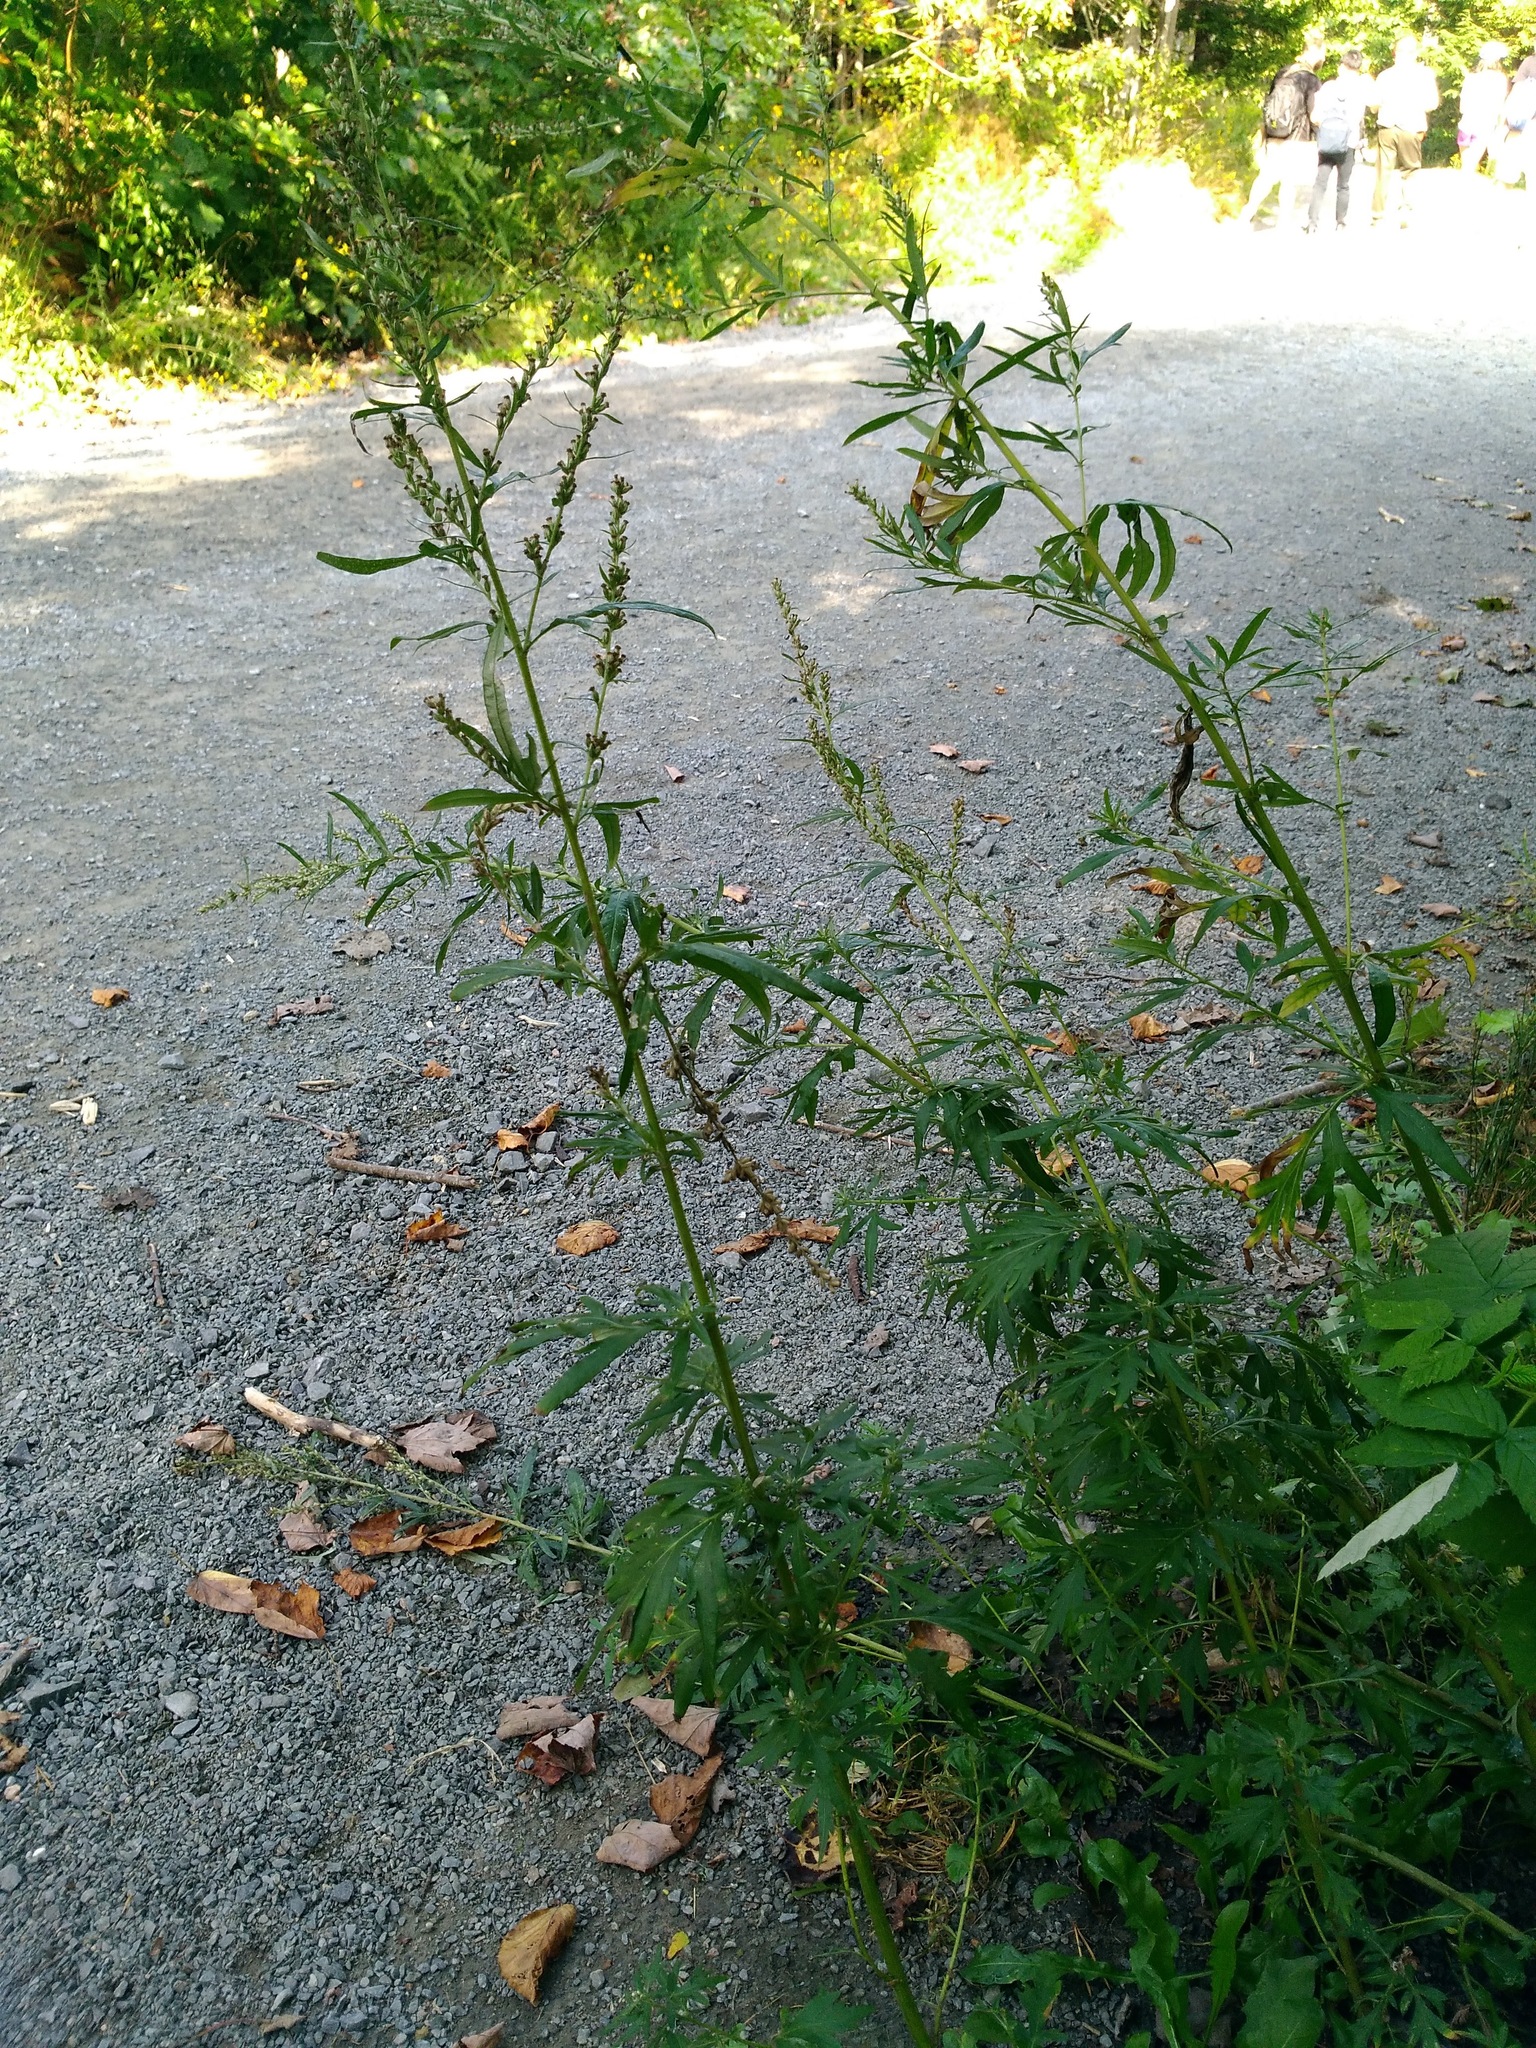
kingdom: Plantae
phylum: Tracheophyta
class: Magnoliopsida
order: Asterales
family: Asteraceae
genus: Artemisia
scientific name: Artemisia vulgaris
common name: Mugwort
